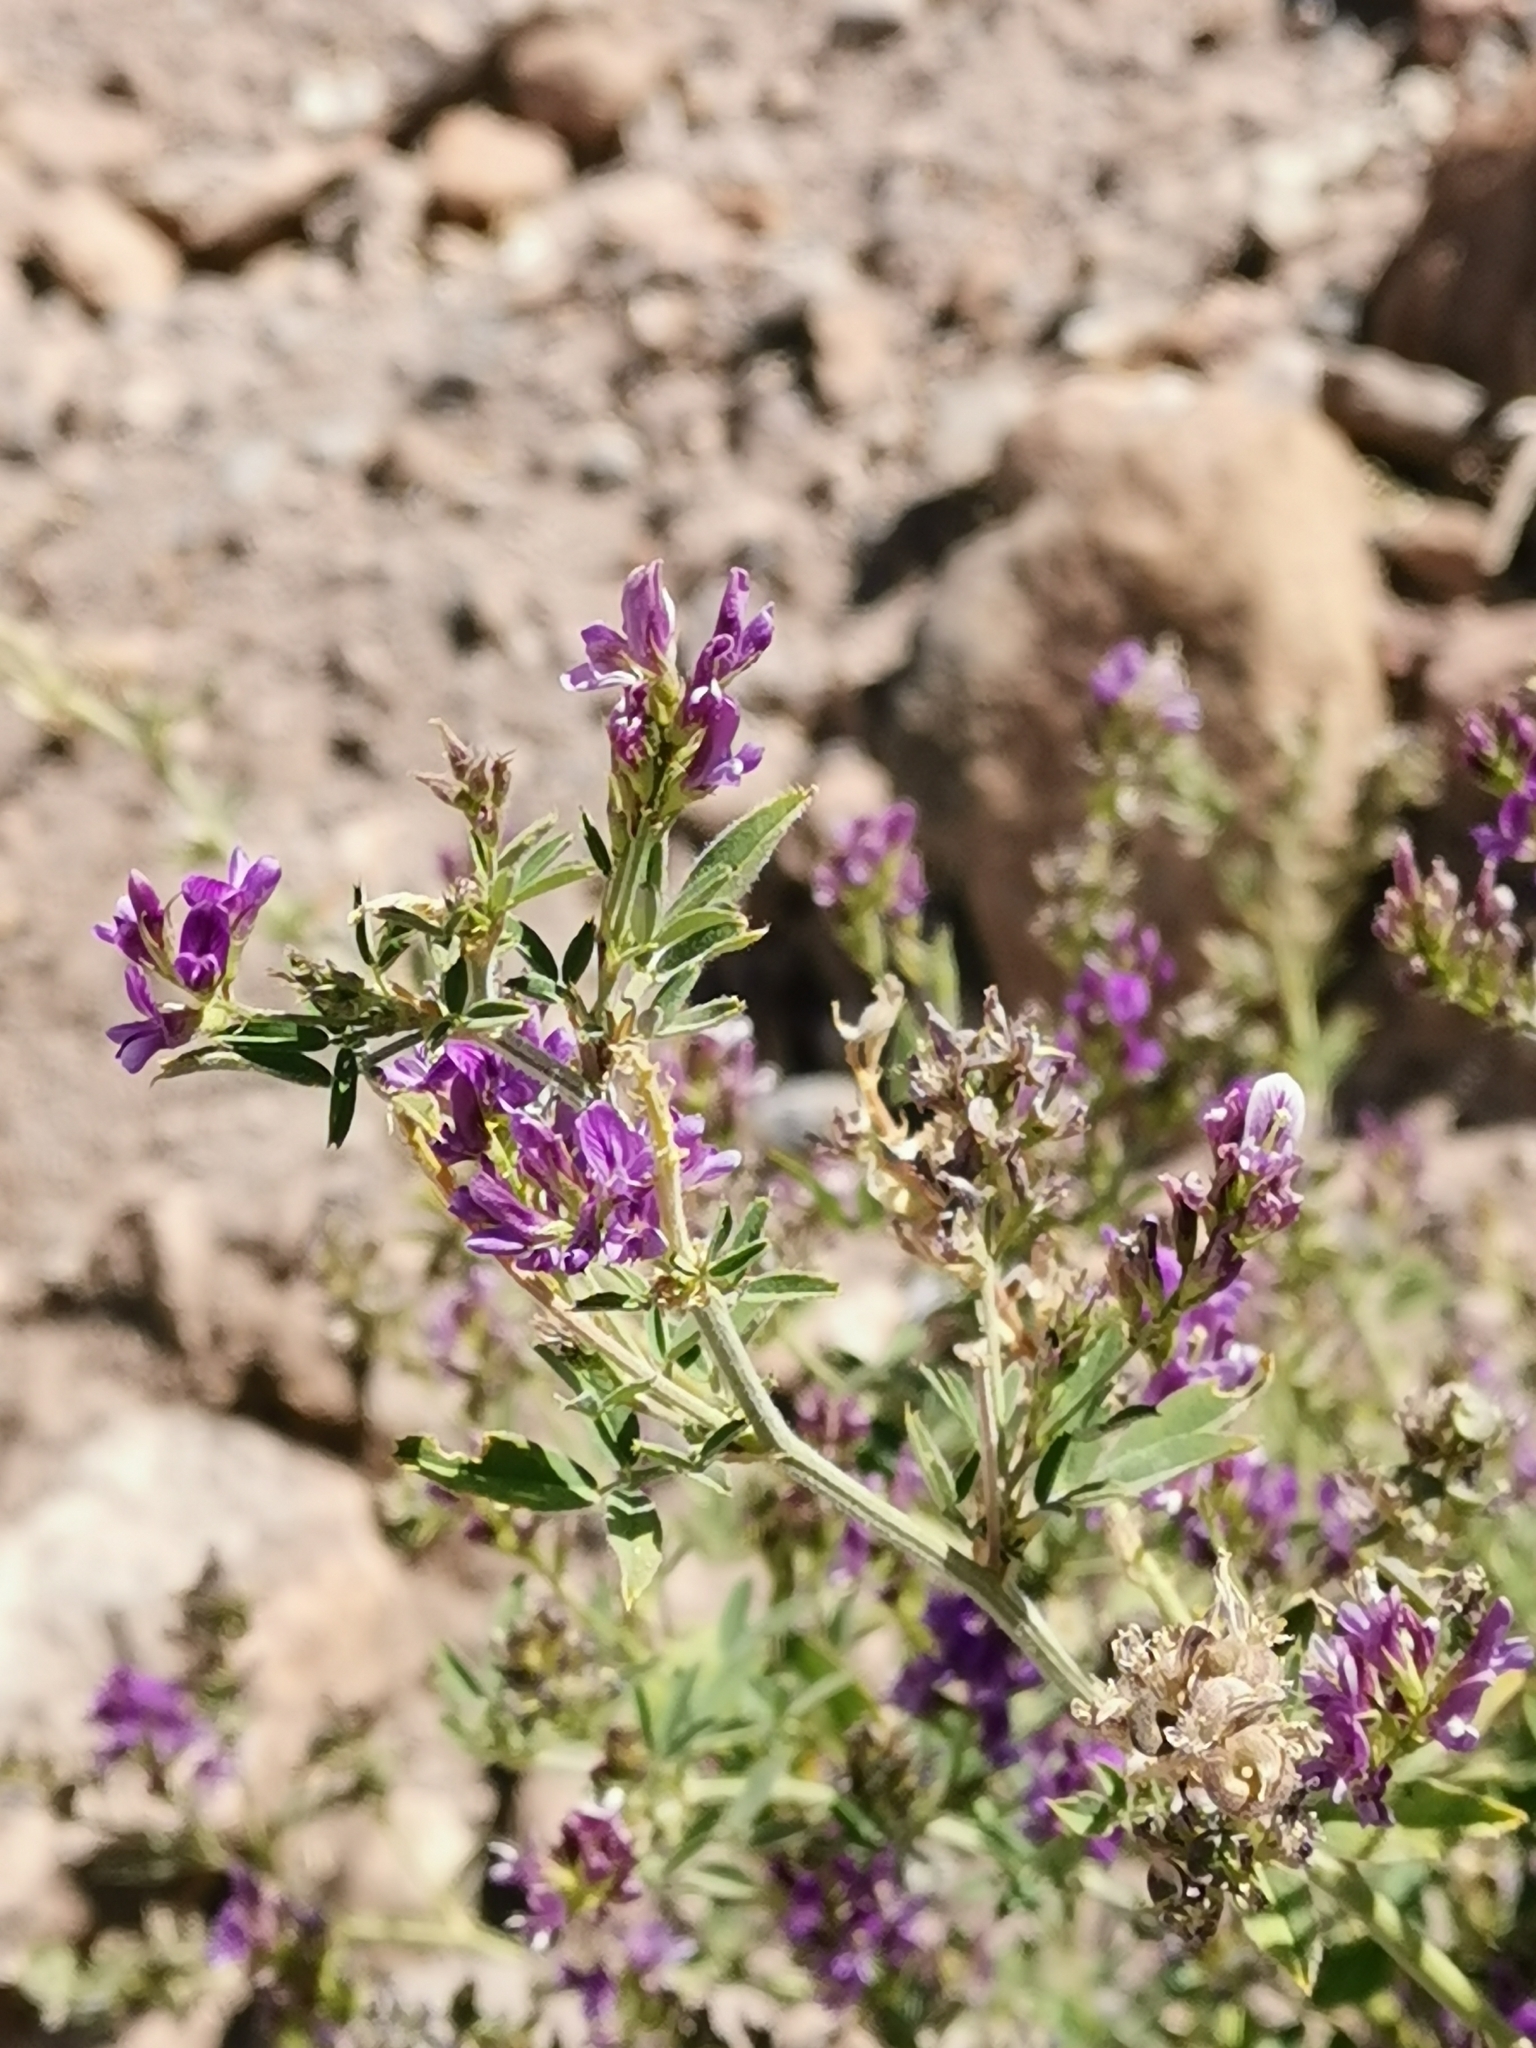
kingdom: Plantae
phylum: Tracheophyta
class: Magnoliopsida
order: Fabales
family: Fabaceae
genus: Medicago
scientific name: Medicago sativa
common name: Alfalfa
